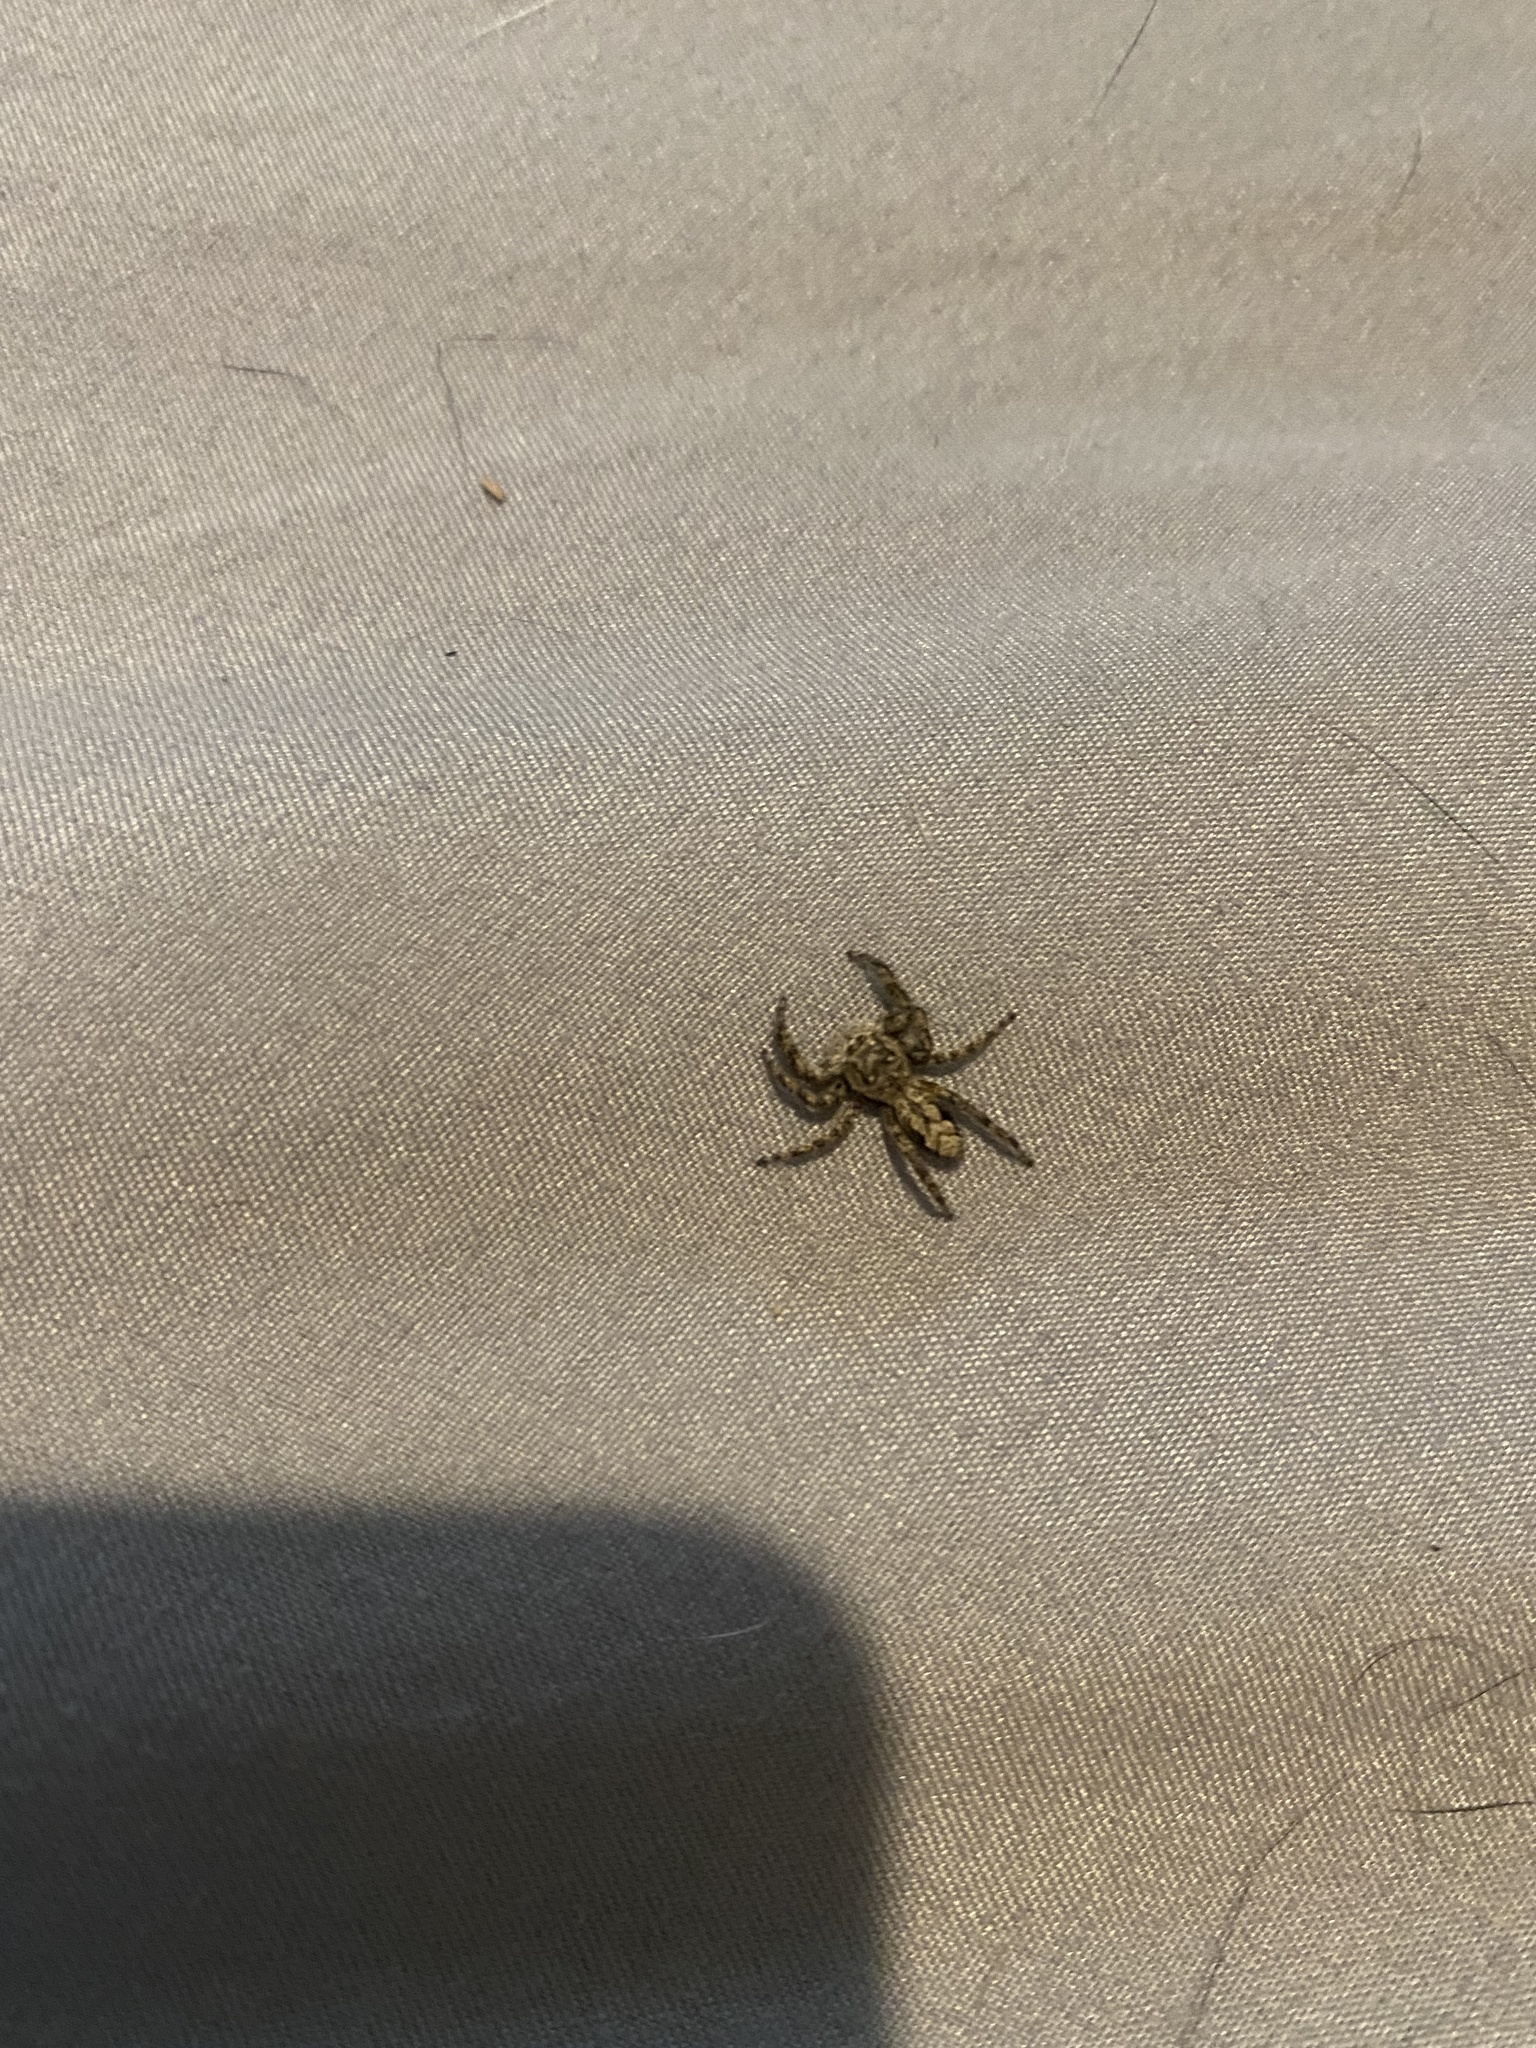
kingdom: Animalia
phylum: Arthropoda
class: Arachnida
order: Araneae
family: Salticidae
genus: Platycryptus
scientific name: Platycryptus undatus
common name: Tan jumping spider
